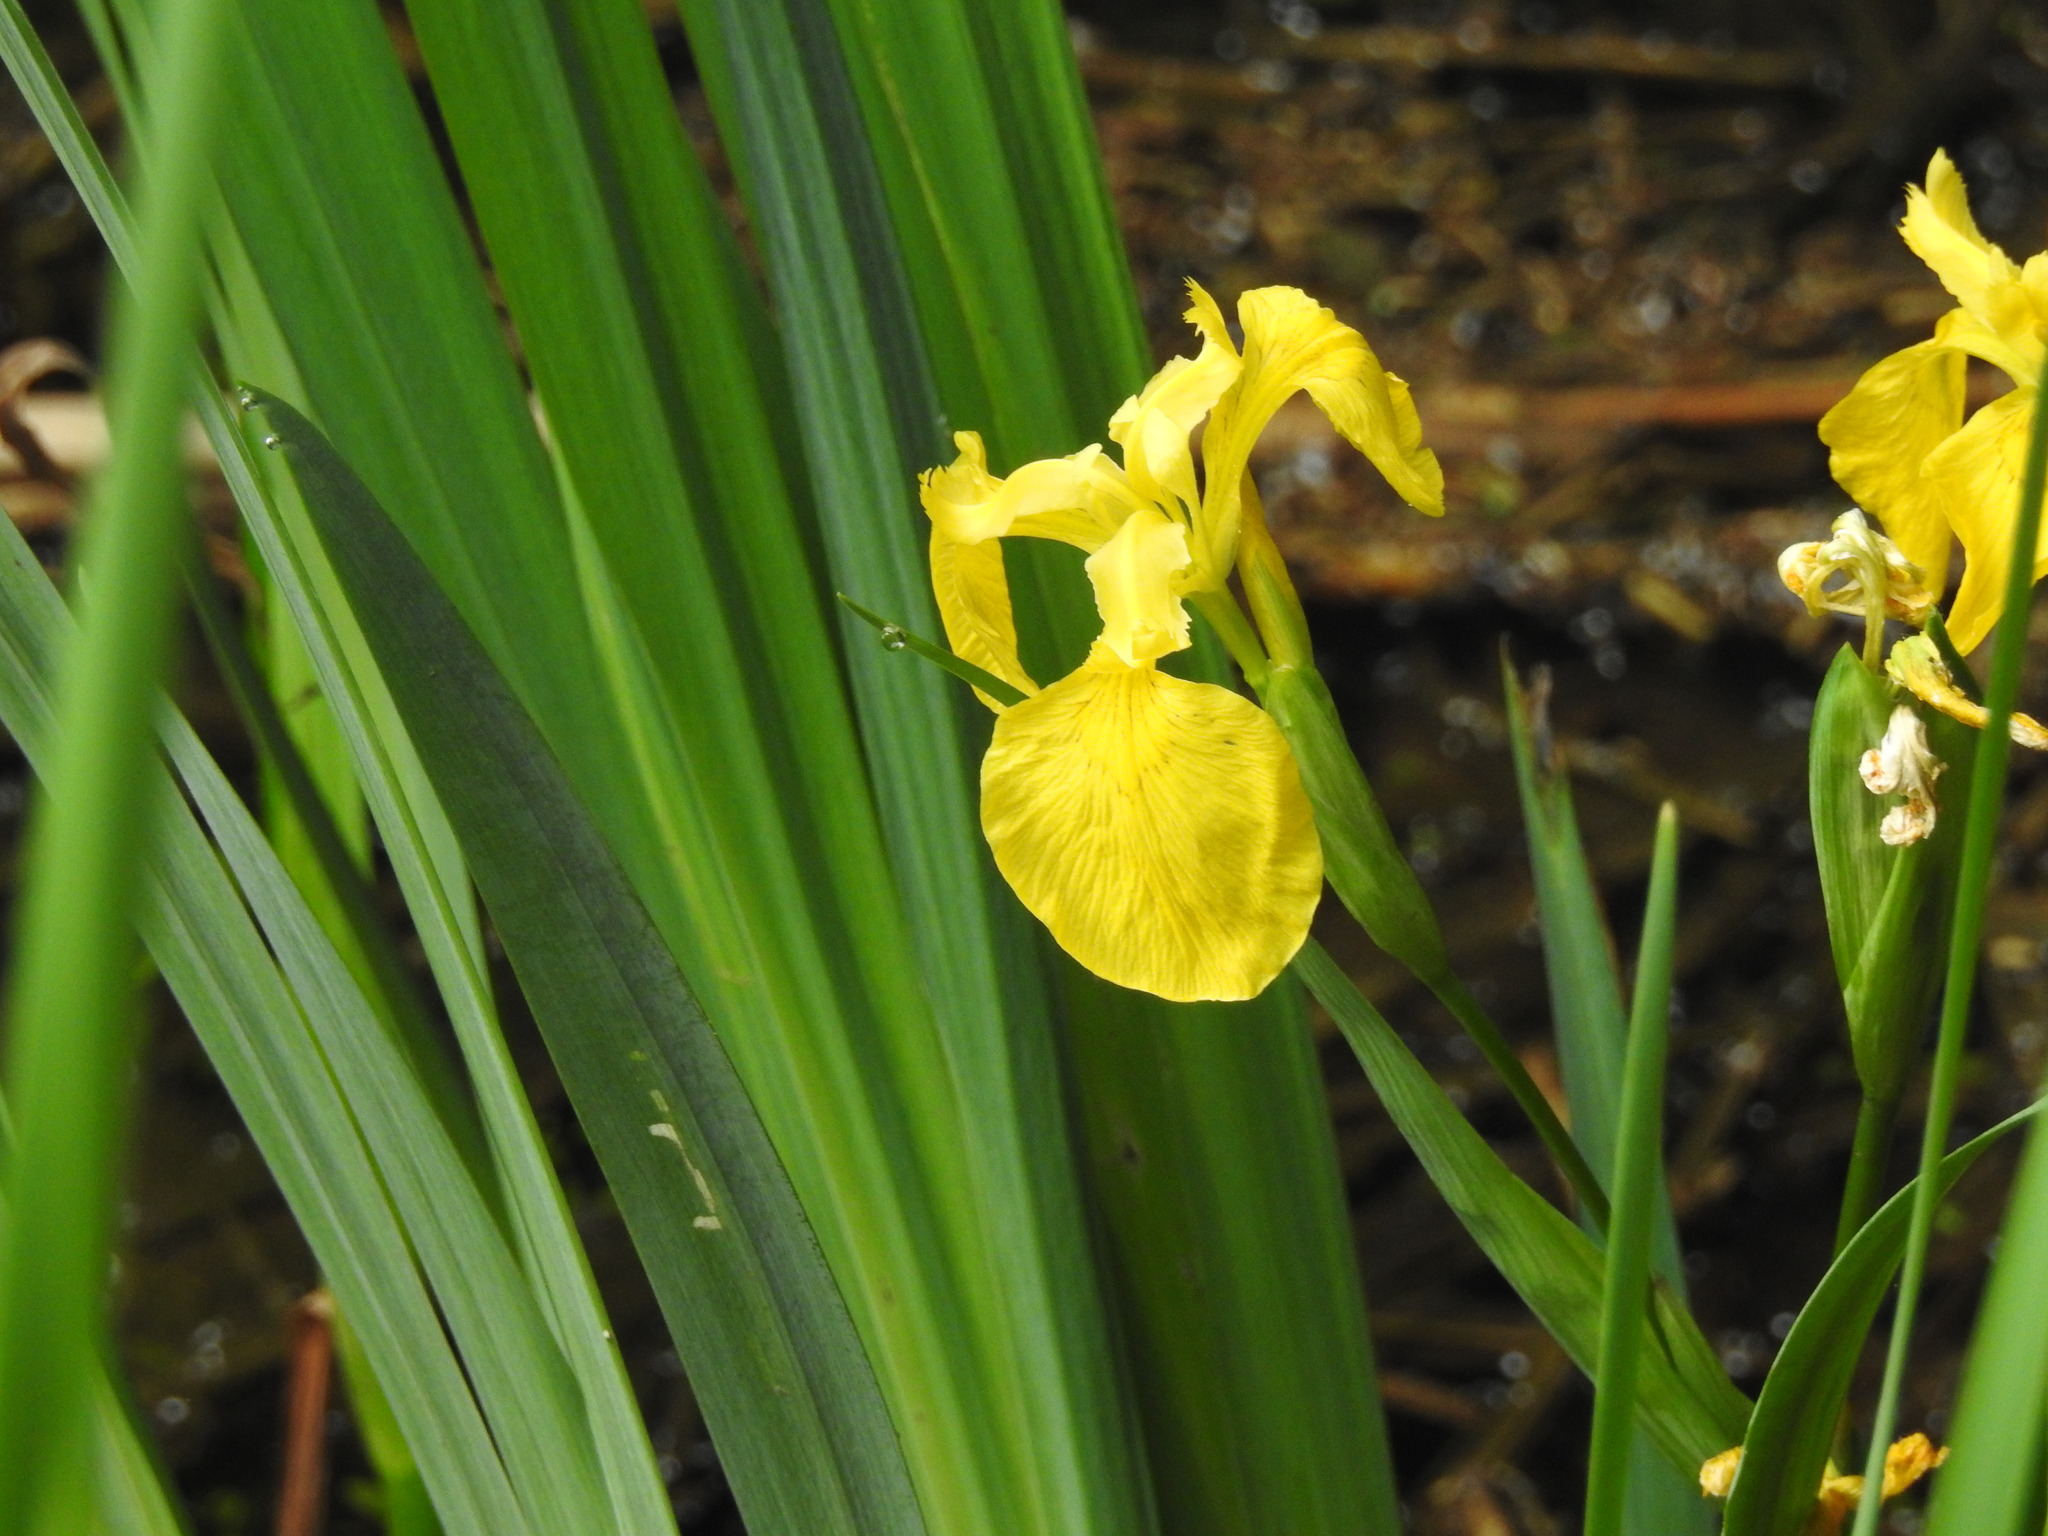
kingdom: Plantae
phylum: Tracheophyta
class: Liliopsida
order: Asparagales
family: Iridaceae
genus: Iris
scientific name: Iris pseudacorus
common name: Yellow flag
